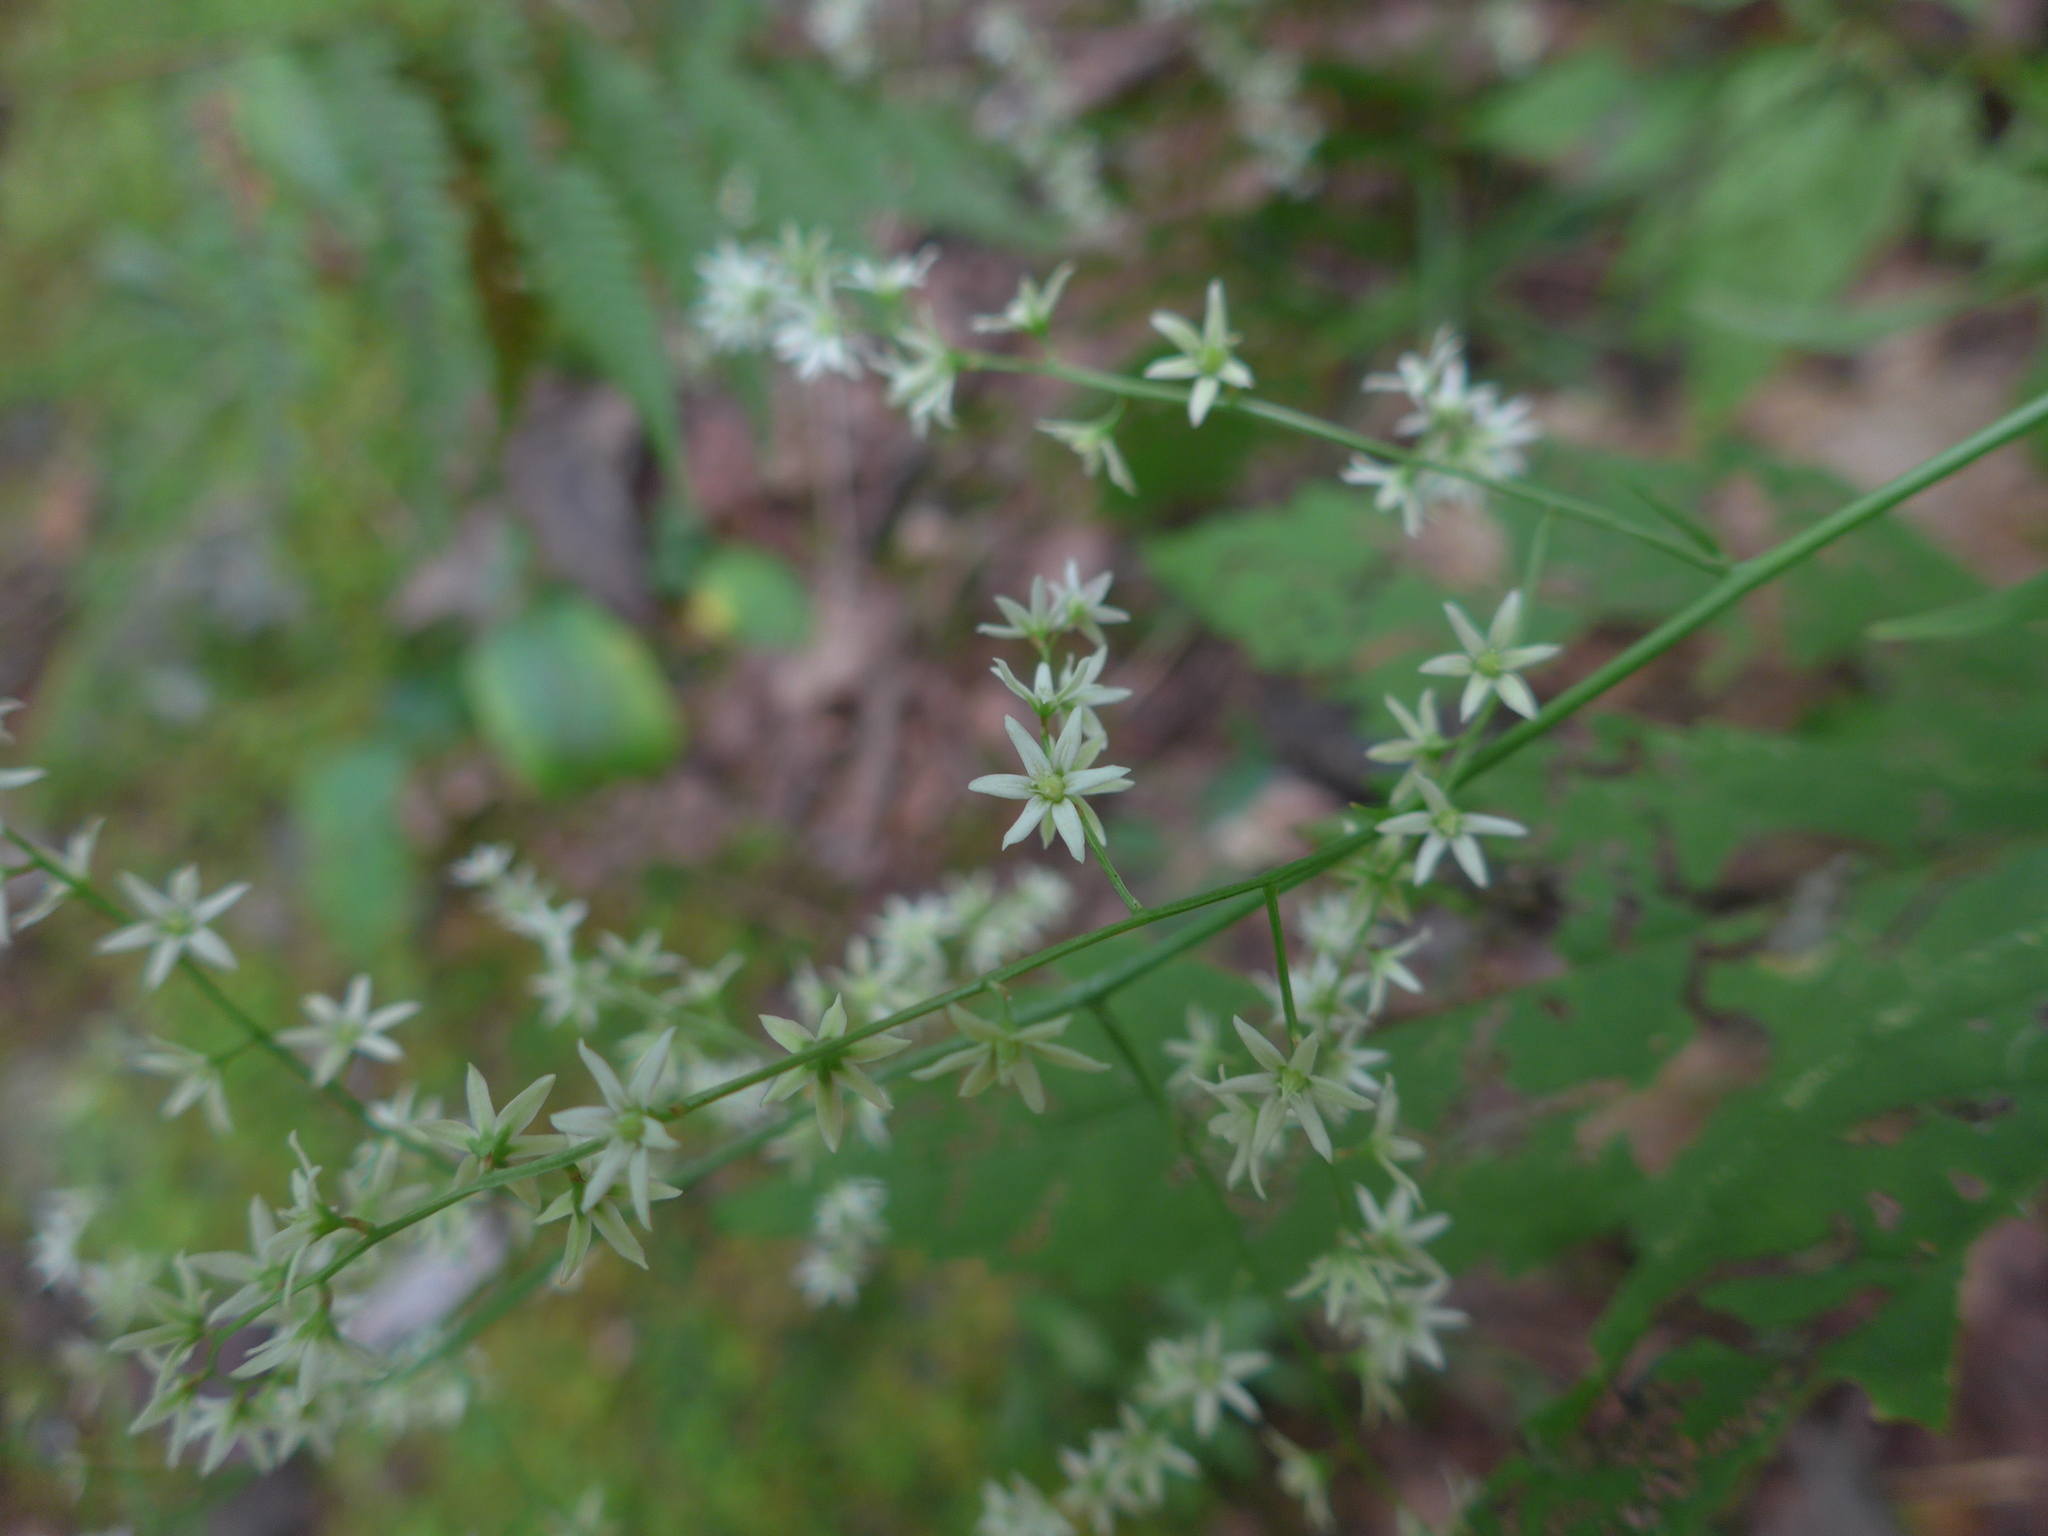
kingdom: Plantae
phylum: Tracheophyta
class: Liliopsida
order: Liliales
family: Melanthiaceae
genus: Stenanthium
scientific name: Stenanthium gramineum
